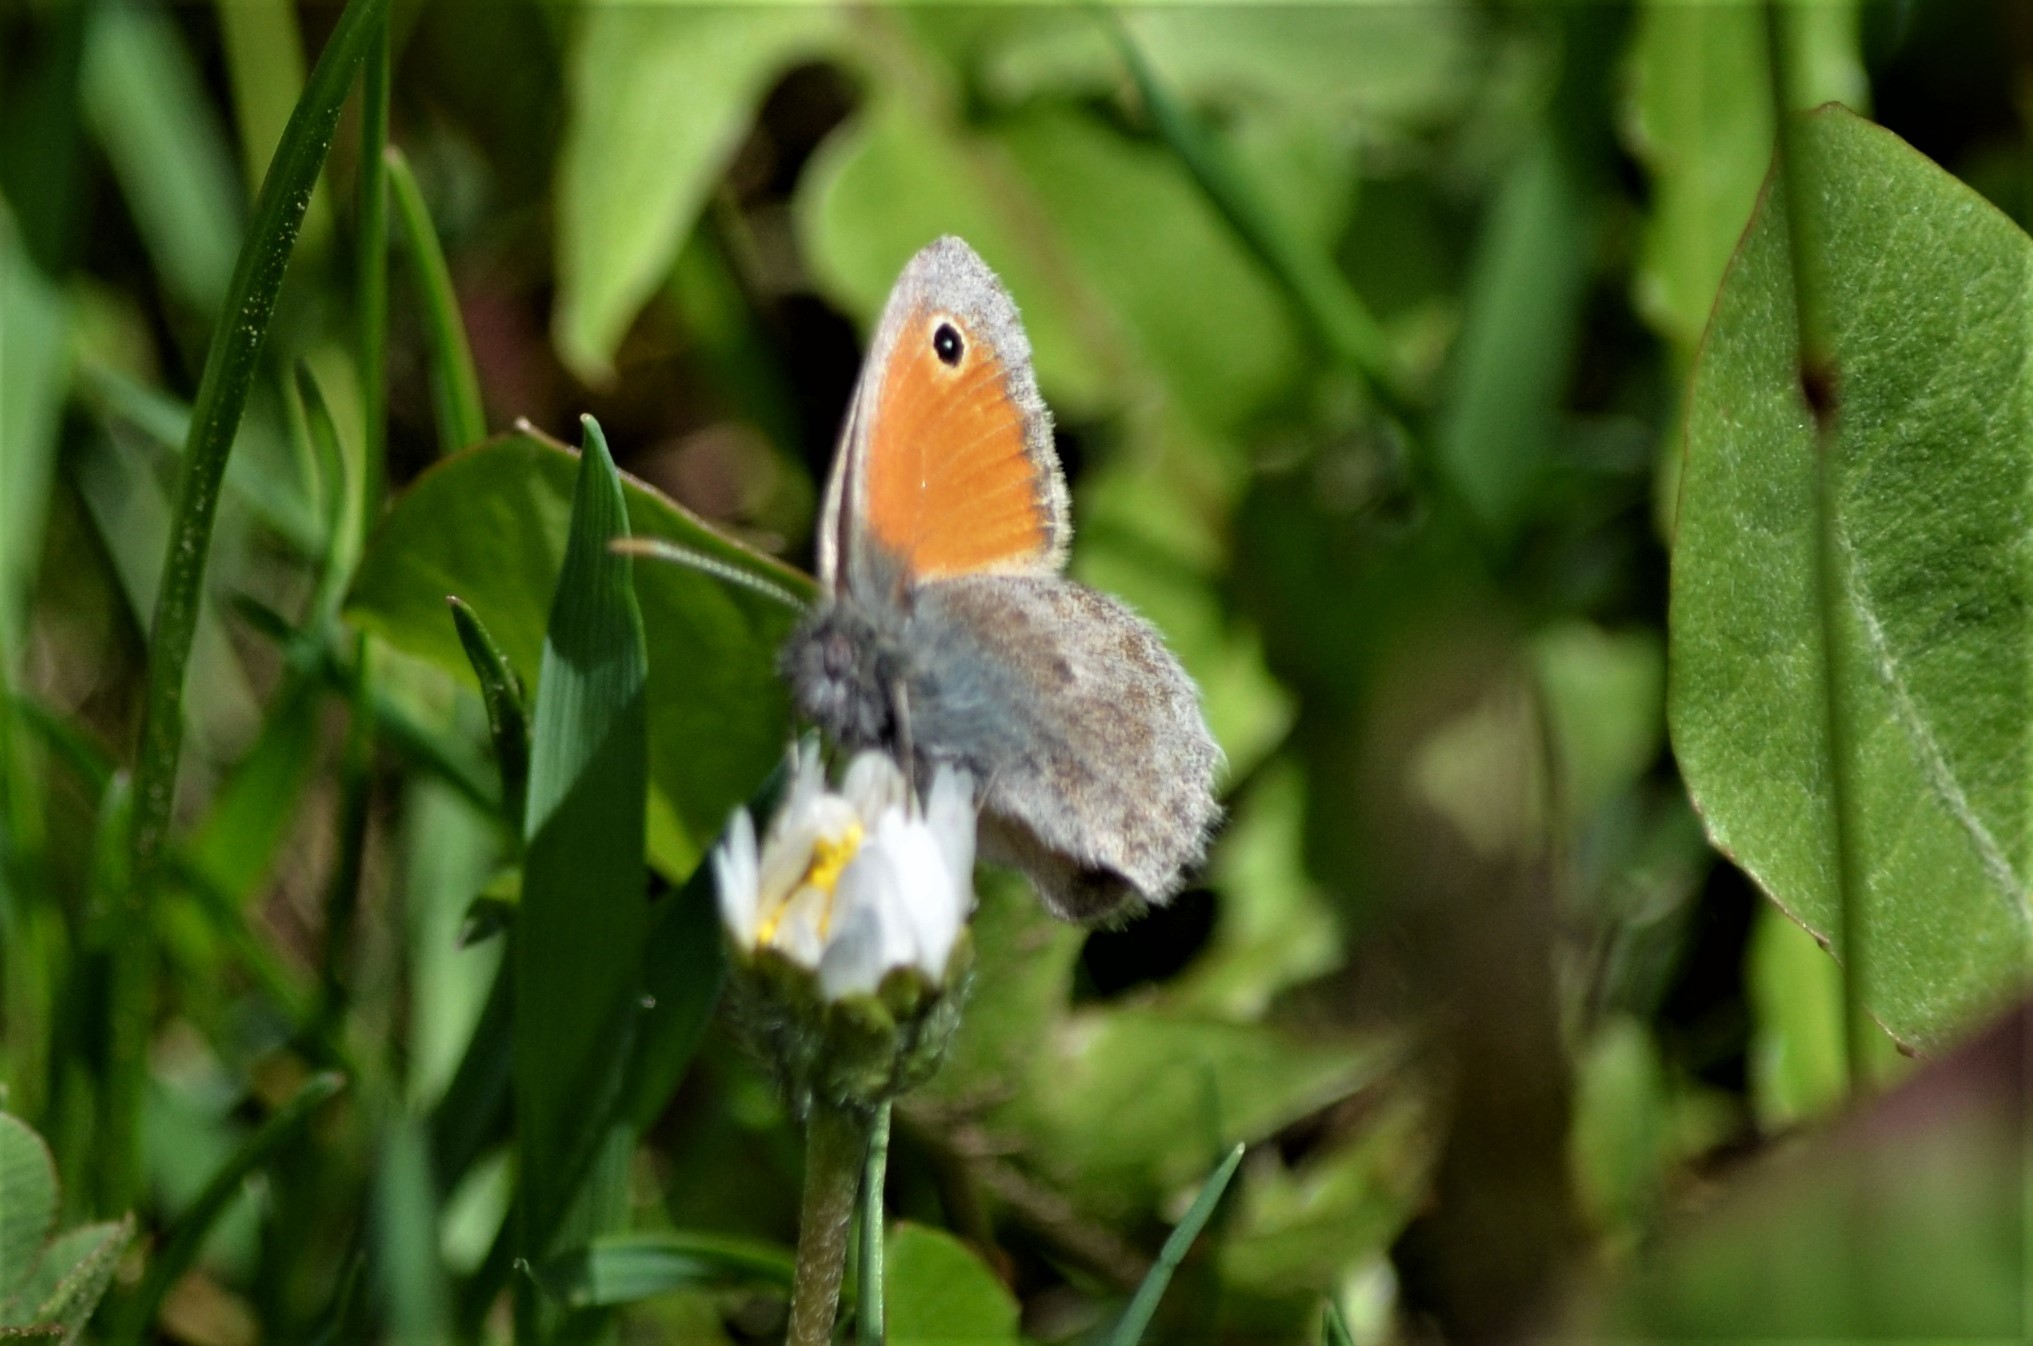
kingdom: Animalia
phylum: Arthropoda
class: Insecta
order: Lepidoptera
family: Nymphalidae
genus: Coenonympha
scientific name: Coenonympha pamphilus
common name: Small heath
